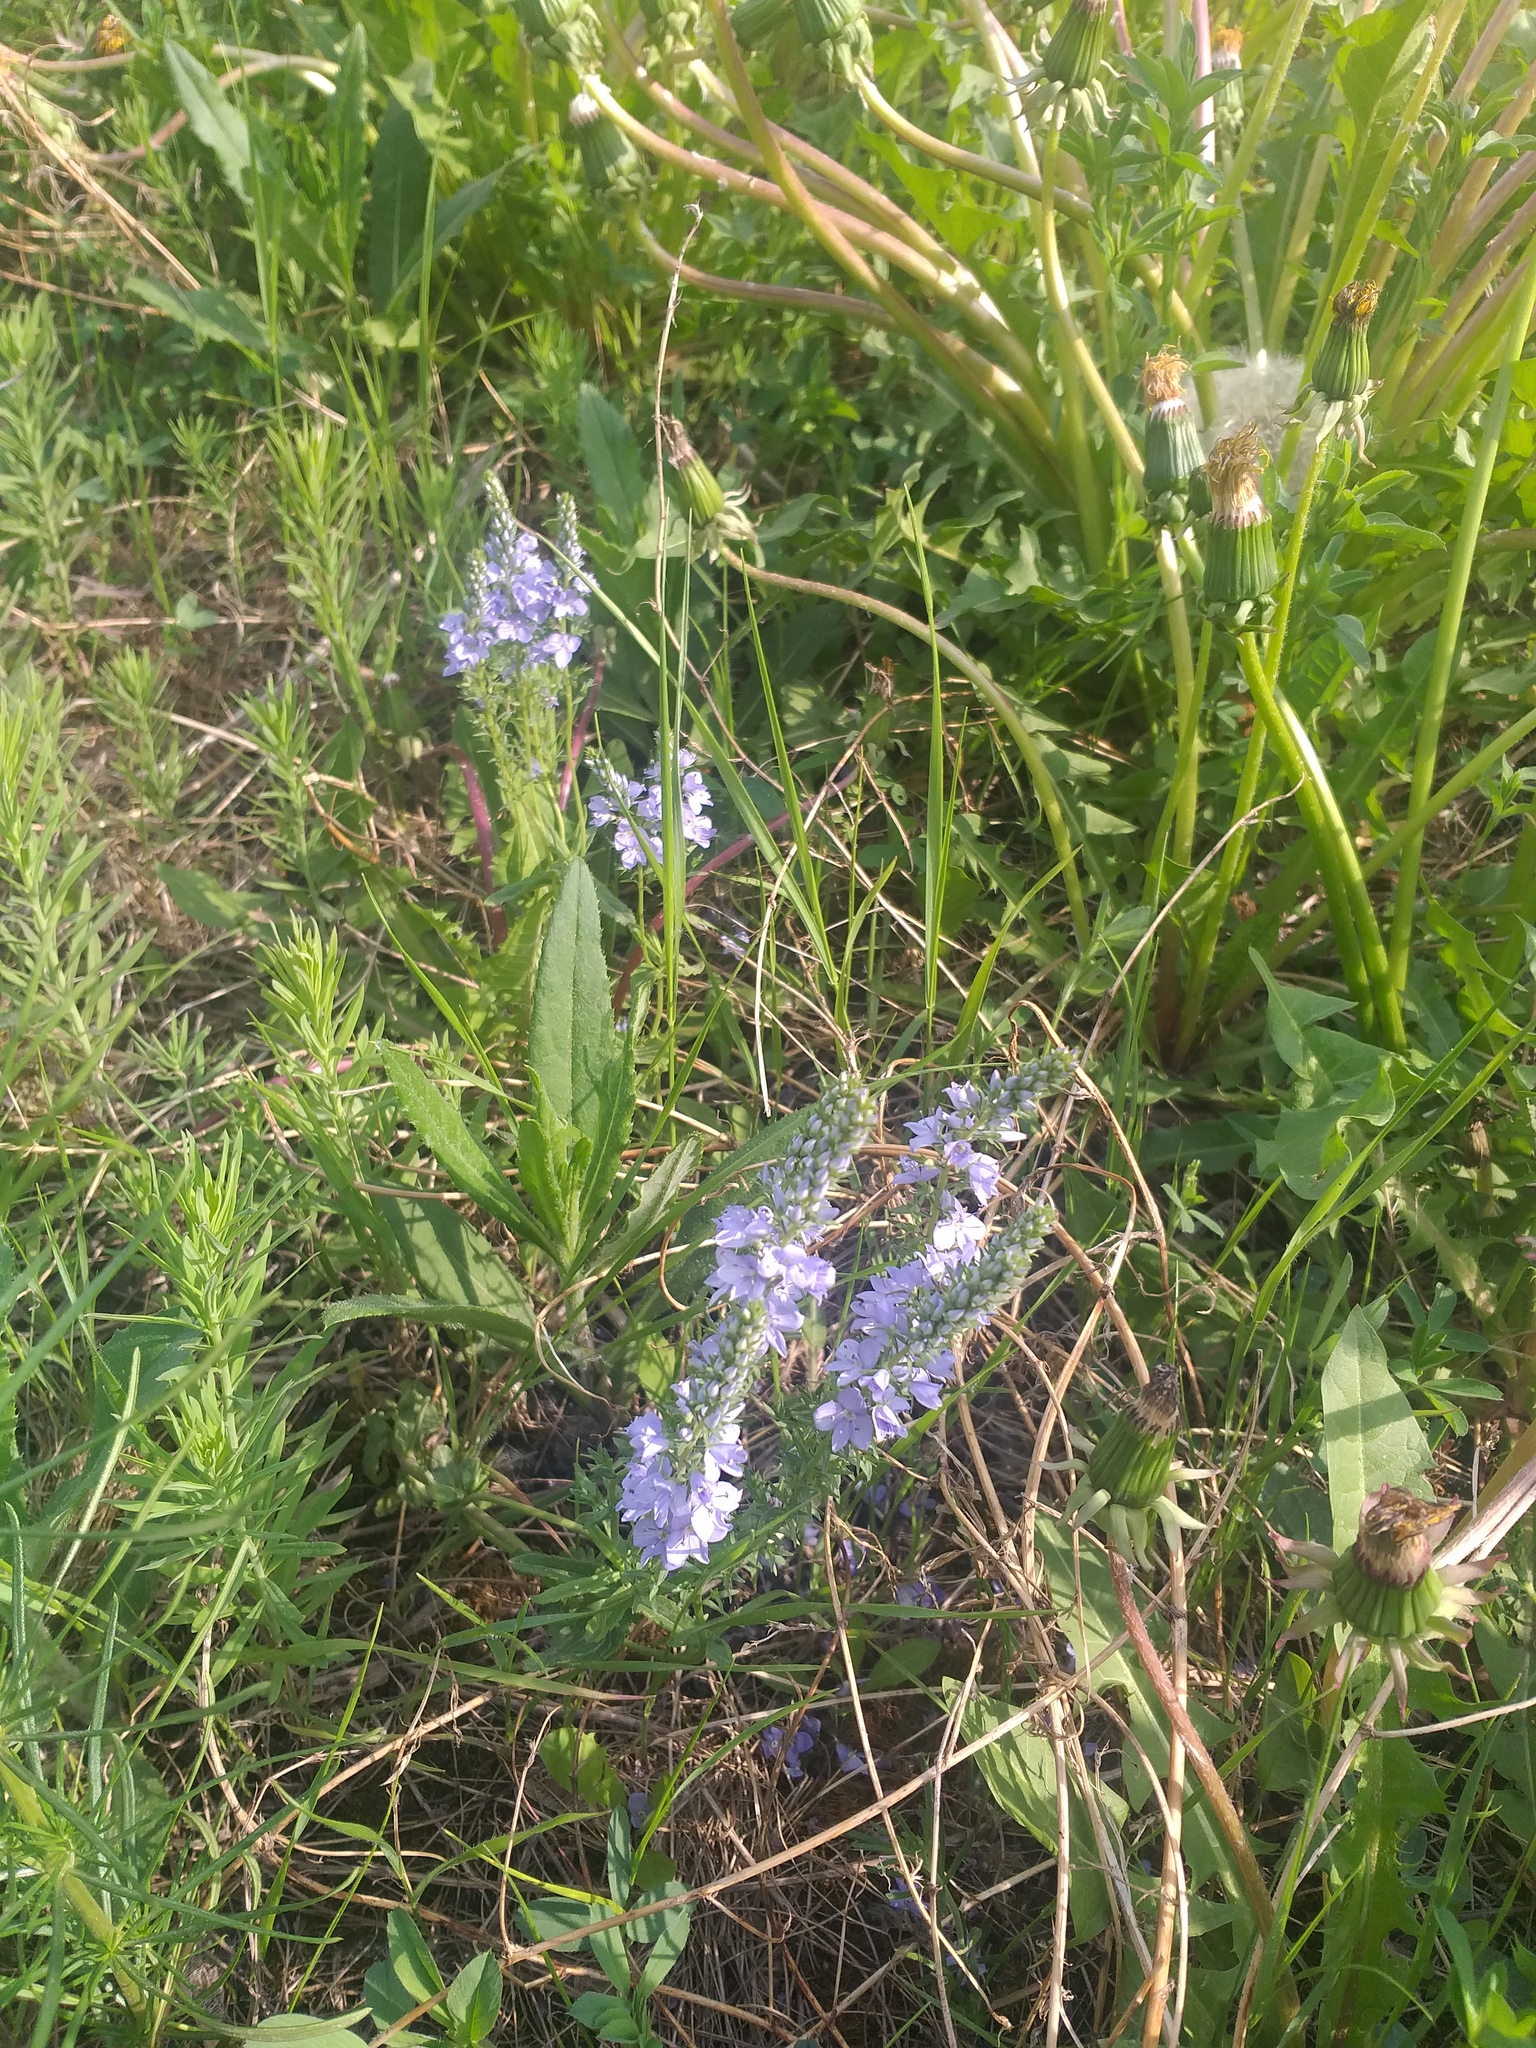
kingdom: Plantae
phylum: Tracheophyta
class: Magnoliopsida
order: Lamiales
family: Plantaginaceae
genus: Veronica
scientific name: Veronica prostrata
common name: Prostrate speedwell
